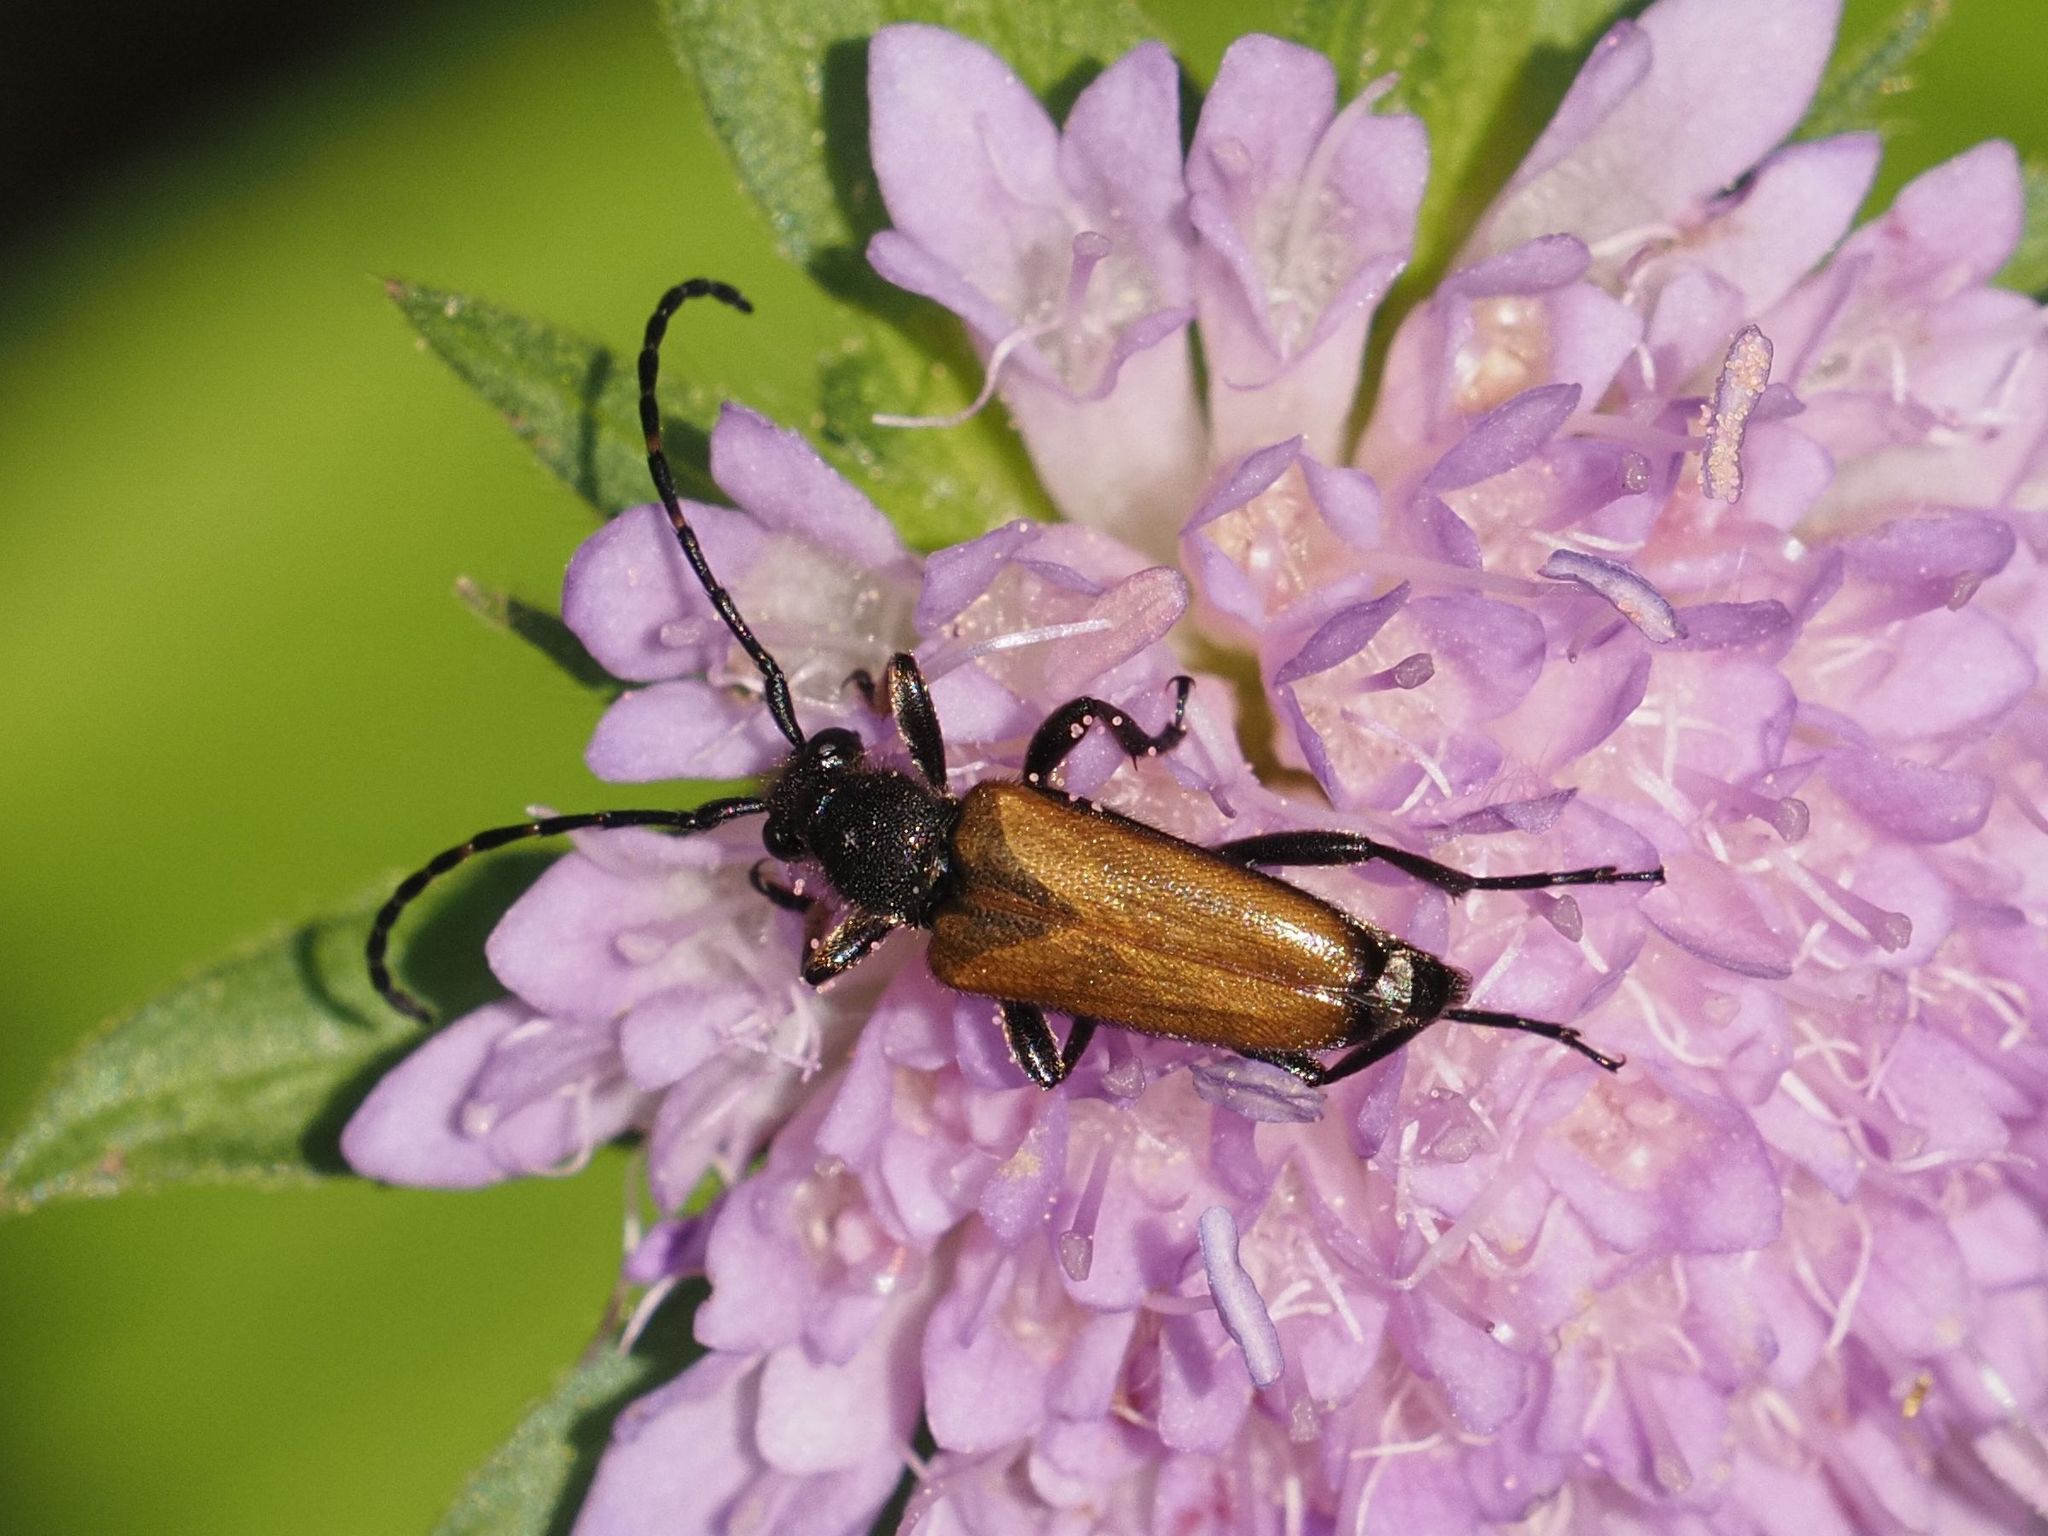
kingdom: Animalia
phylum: Arthropoda
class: Insecta
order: Coleoptera
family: Cerambycidae
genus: Paracorymbia
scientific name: Paracorymbia maculicornis
